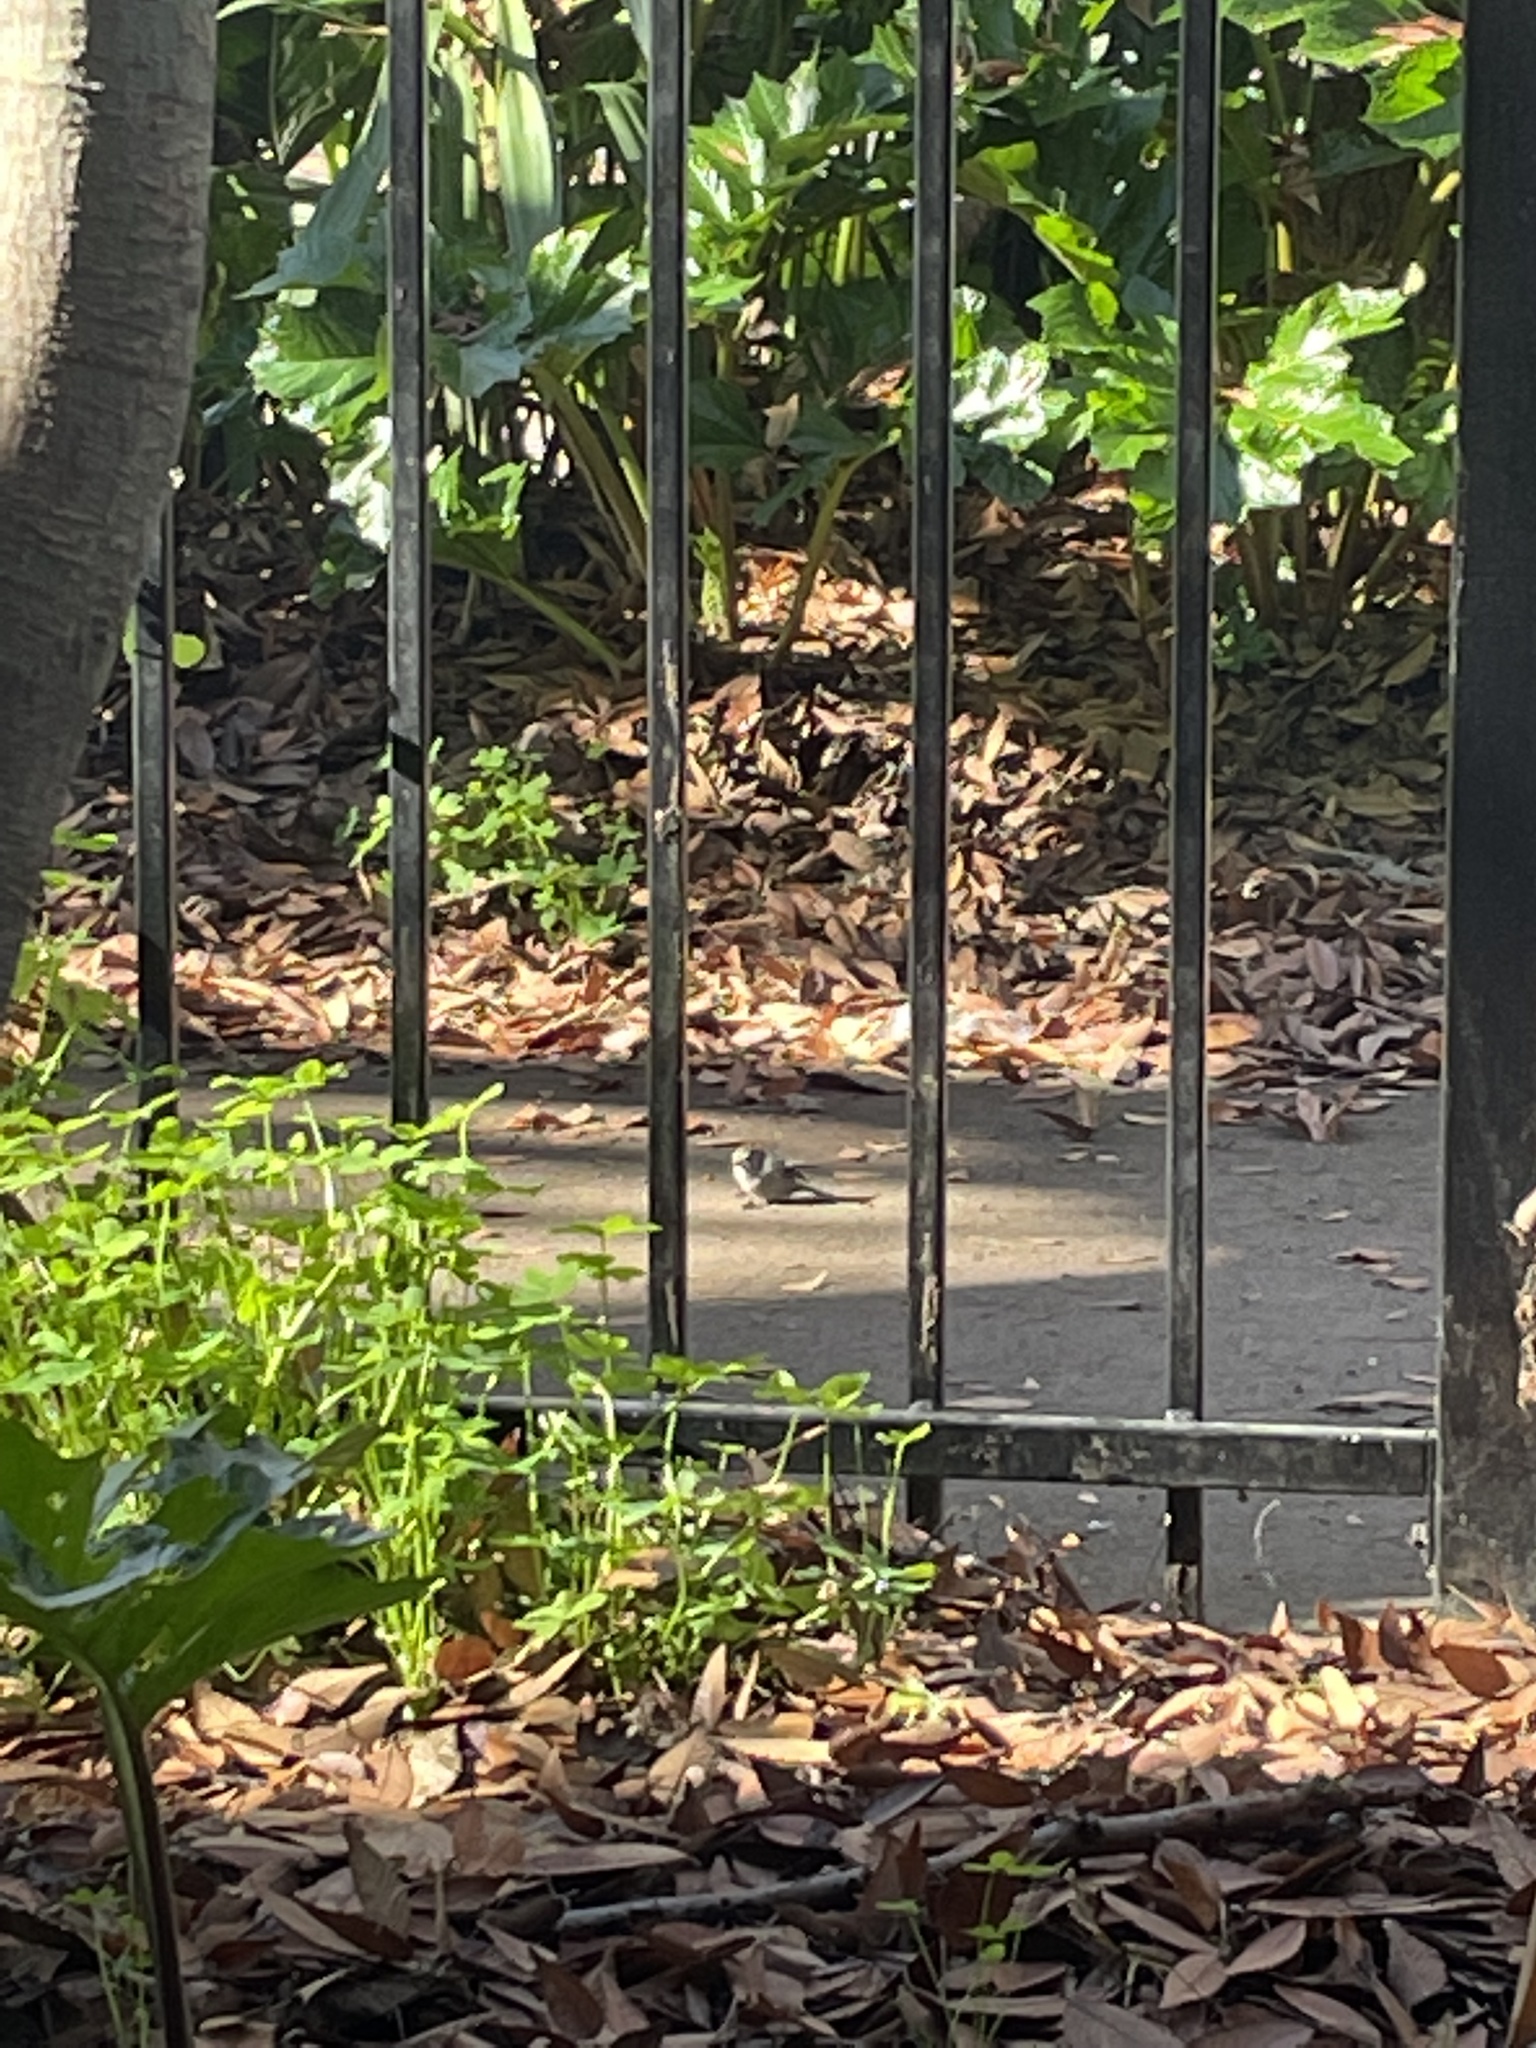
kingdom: Animalia
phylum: Chordata
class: Aves
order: Passeriformes
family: Aegithalidae
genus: Psaltriparus
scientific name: Psaltriparus minimus
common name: American bushtit
